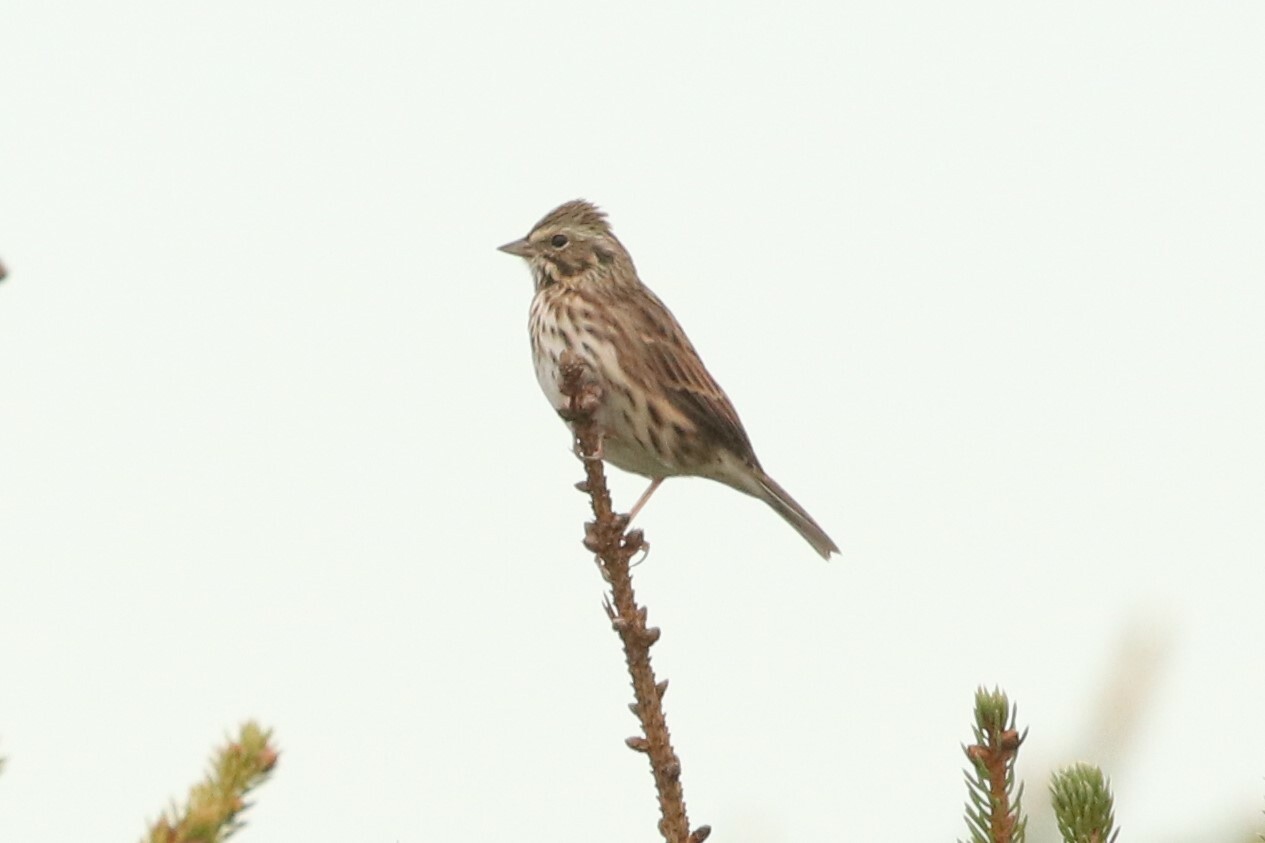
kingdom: Animalia
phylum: Chordata
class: Aves
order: Passeriformes
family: Passerellidae
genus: Passerculus
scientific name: Passerculus sandwichensis
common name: Savannah sparrow
